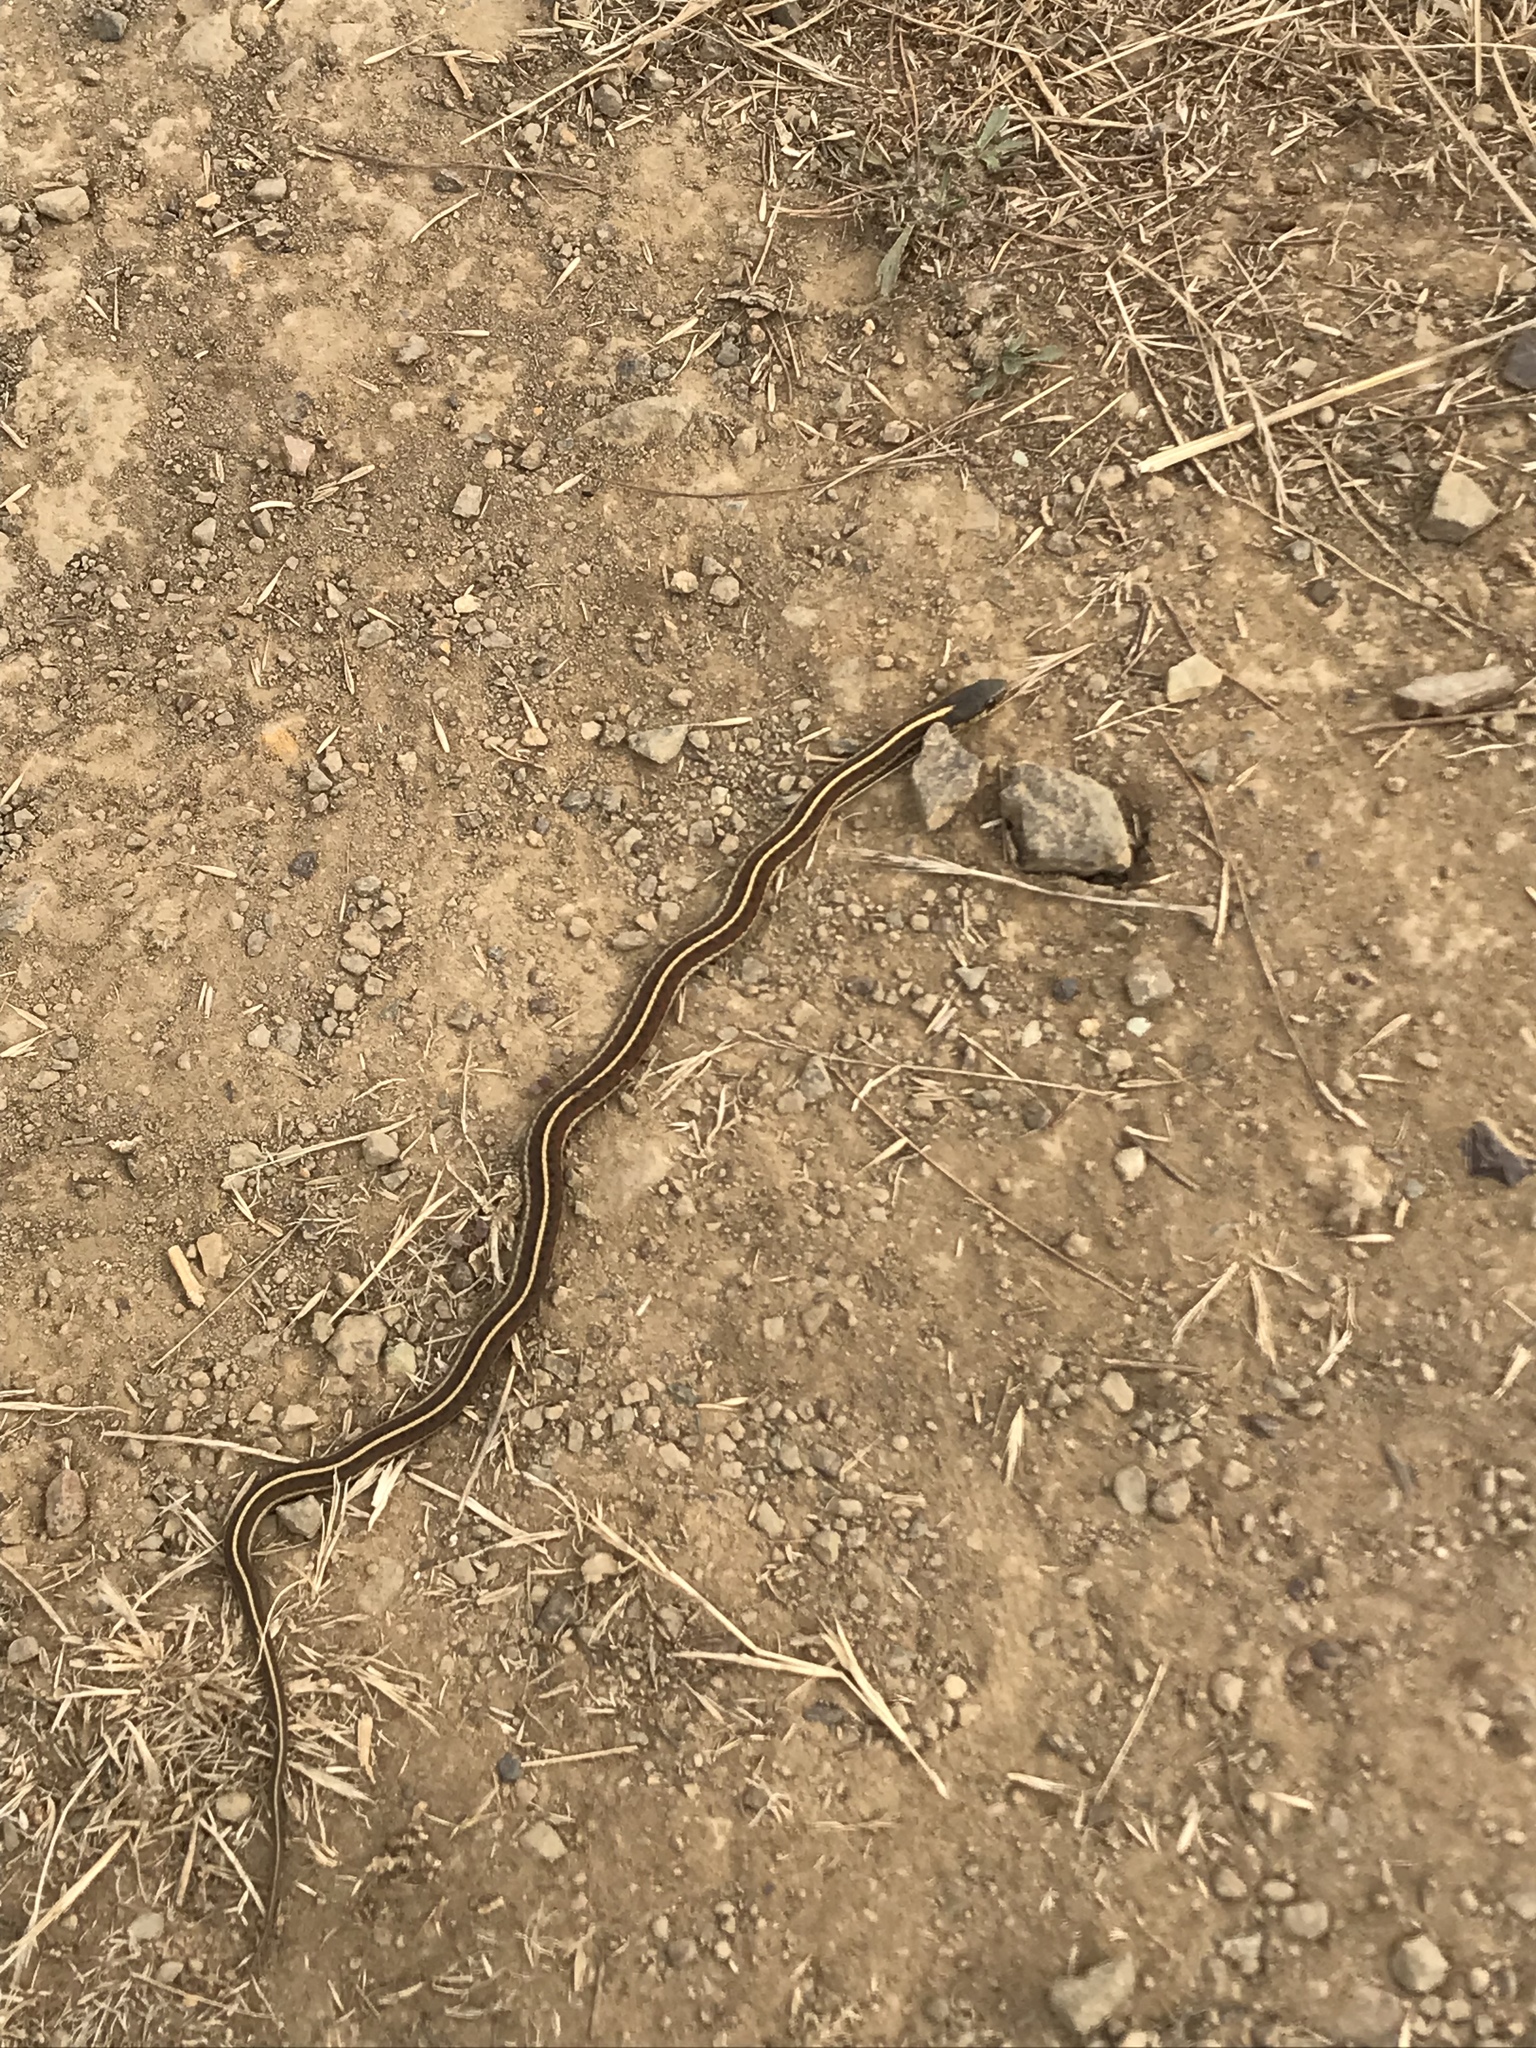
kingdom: Animalia
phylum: Chordata
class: Squamata
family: Colubridae
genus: Thamnophis
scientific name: Thamnophis elegans
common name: Western terrestrial garter snake
